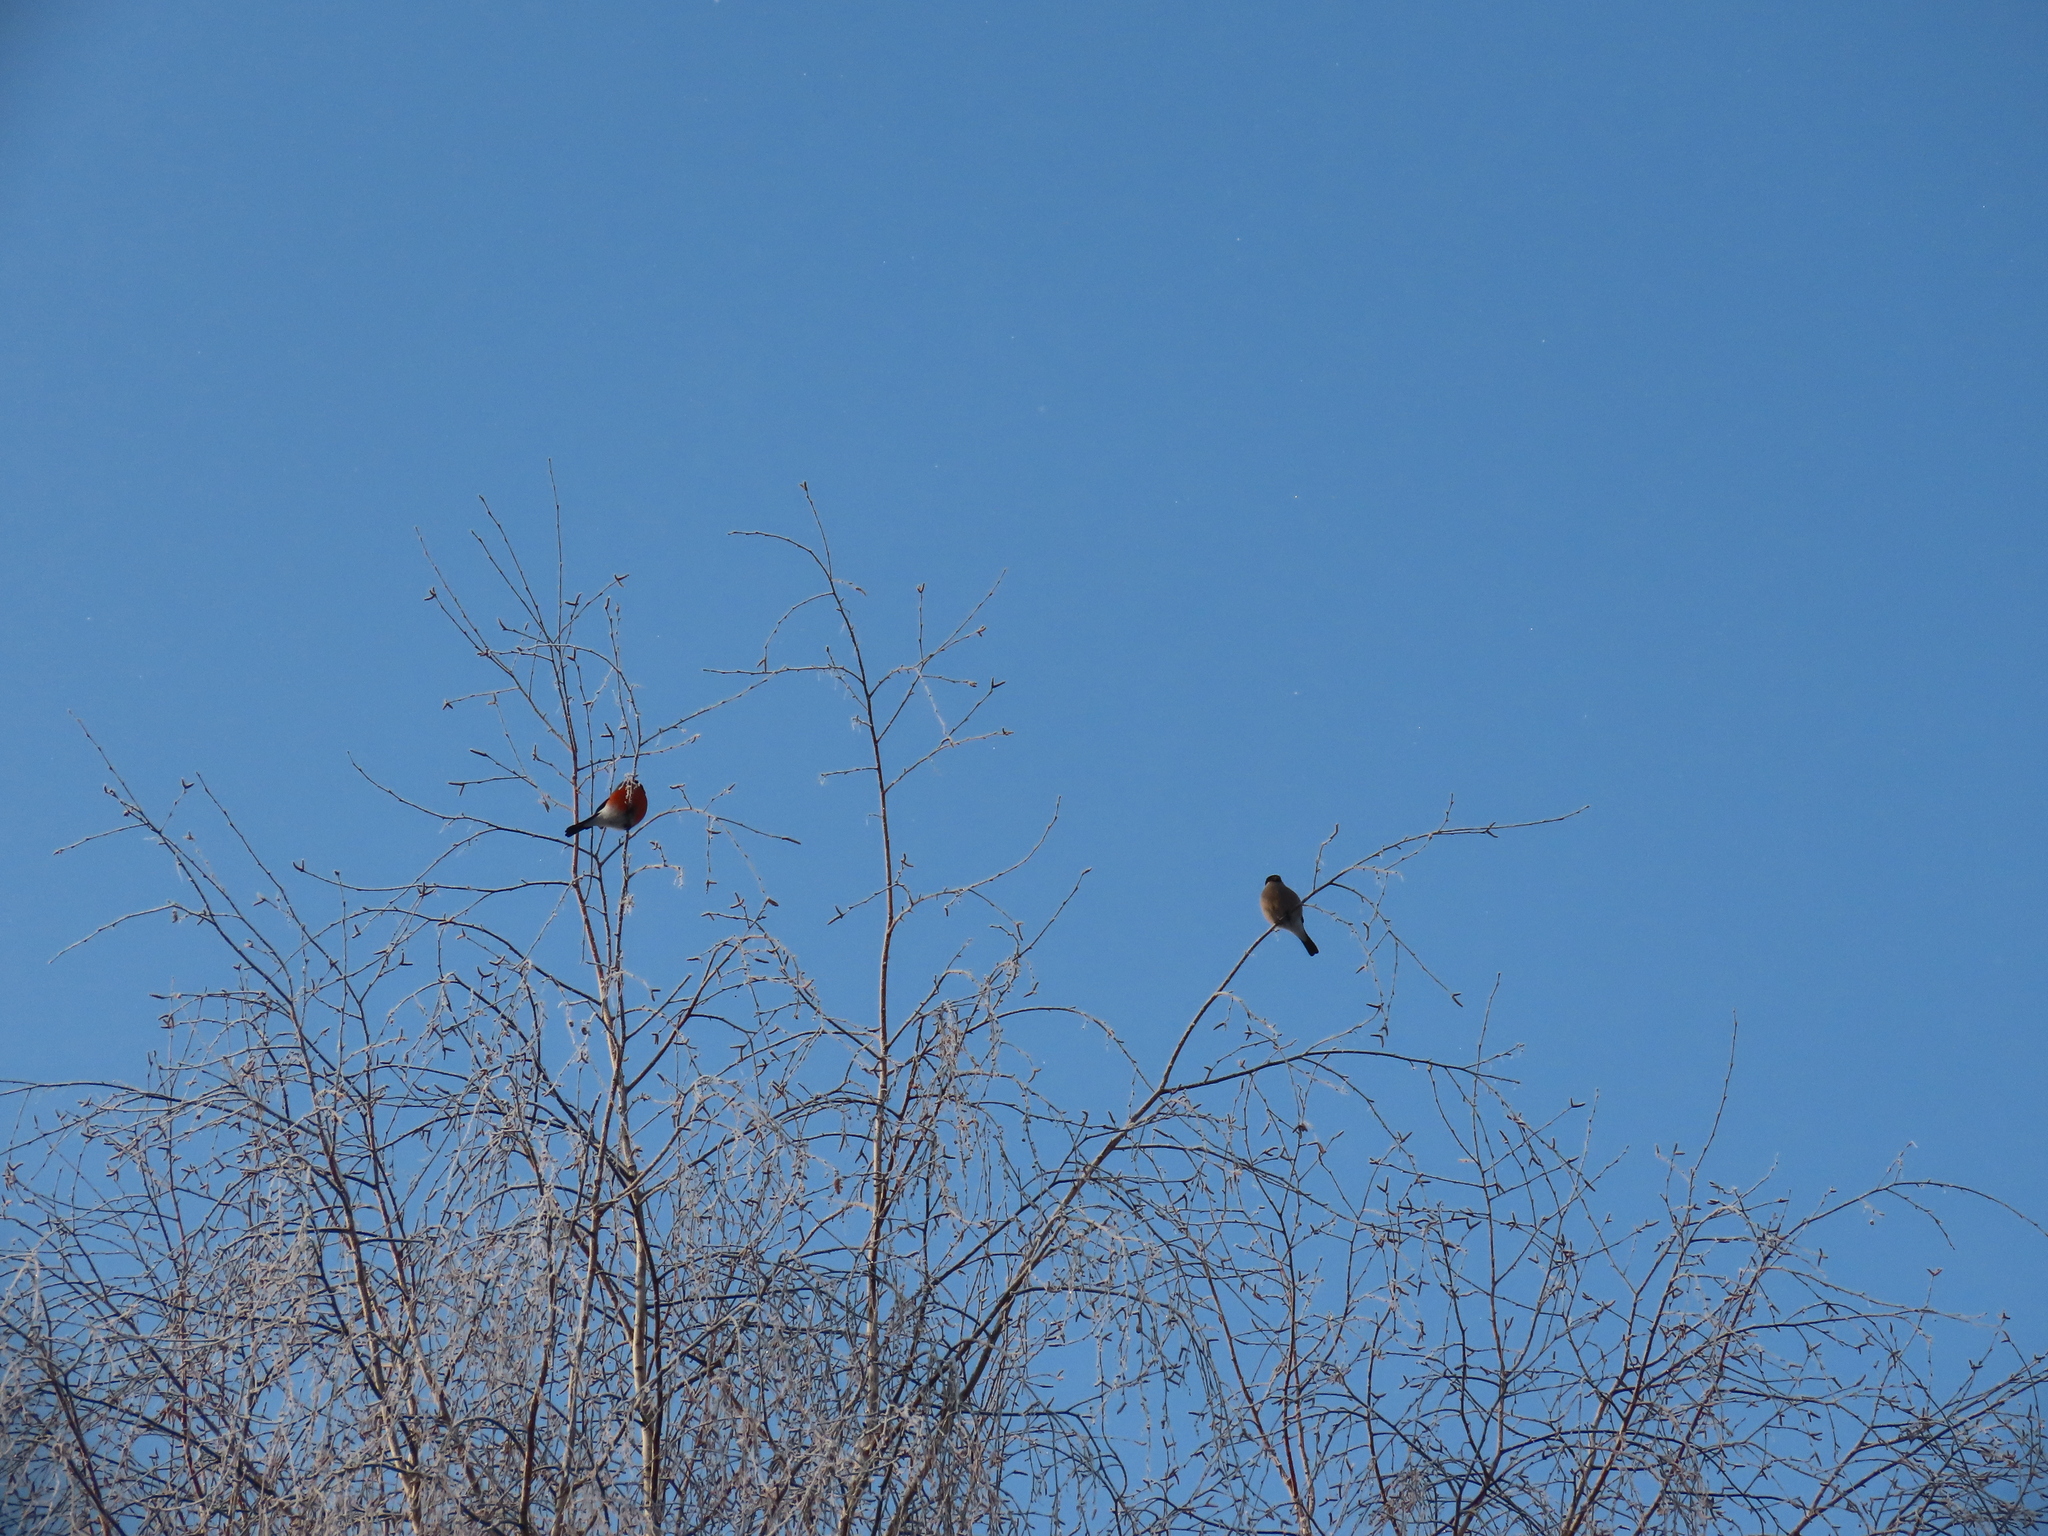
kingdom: Animalia
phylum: Chordata
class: Aves
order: Passeriformes
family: Fringillidae
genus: Pyrrhula
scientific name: Pyrrhula pyrrhula
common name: Eurasian bullfinch
